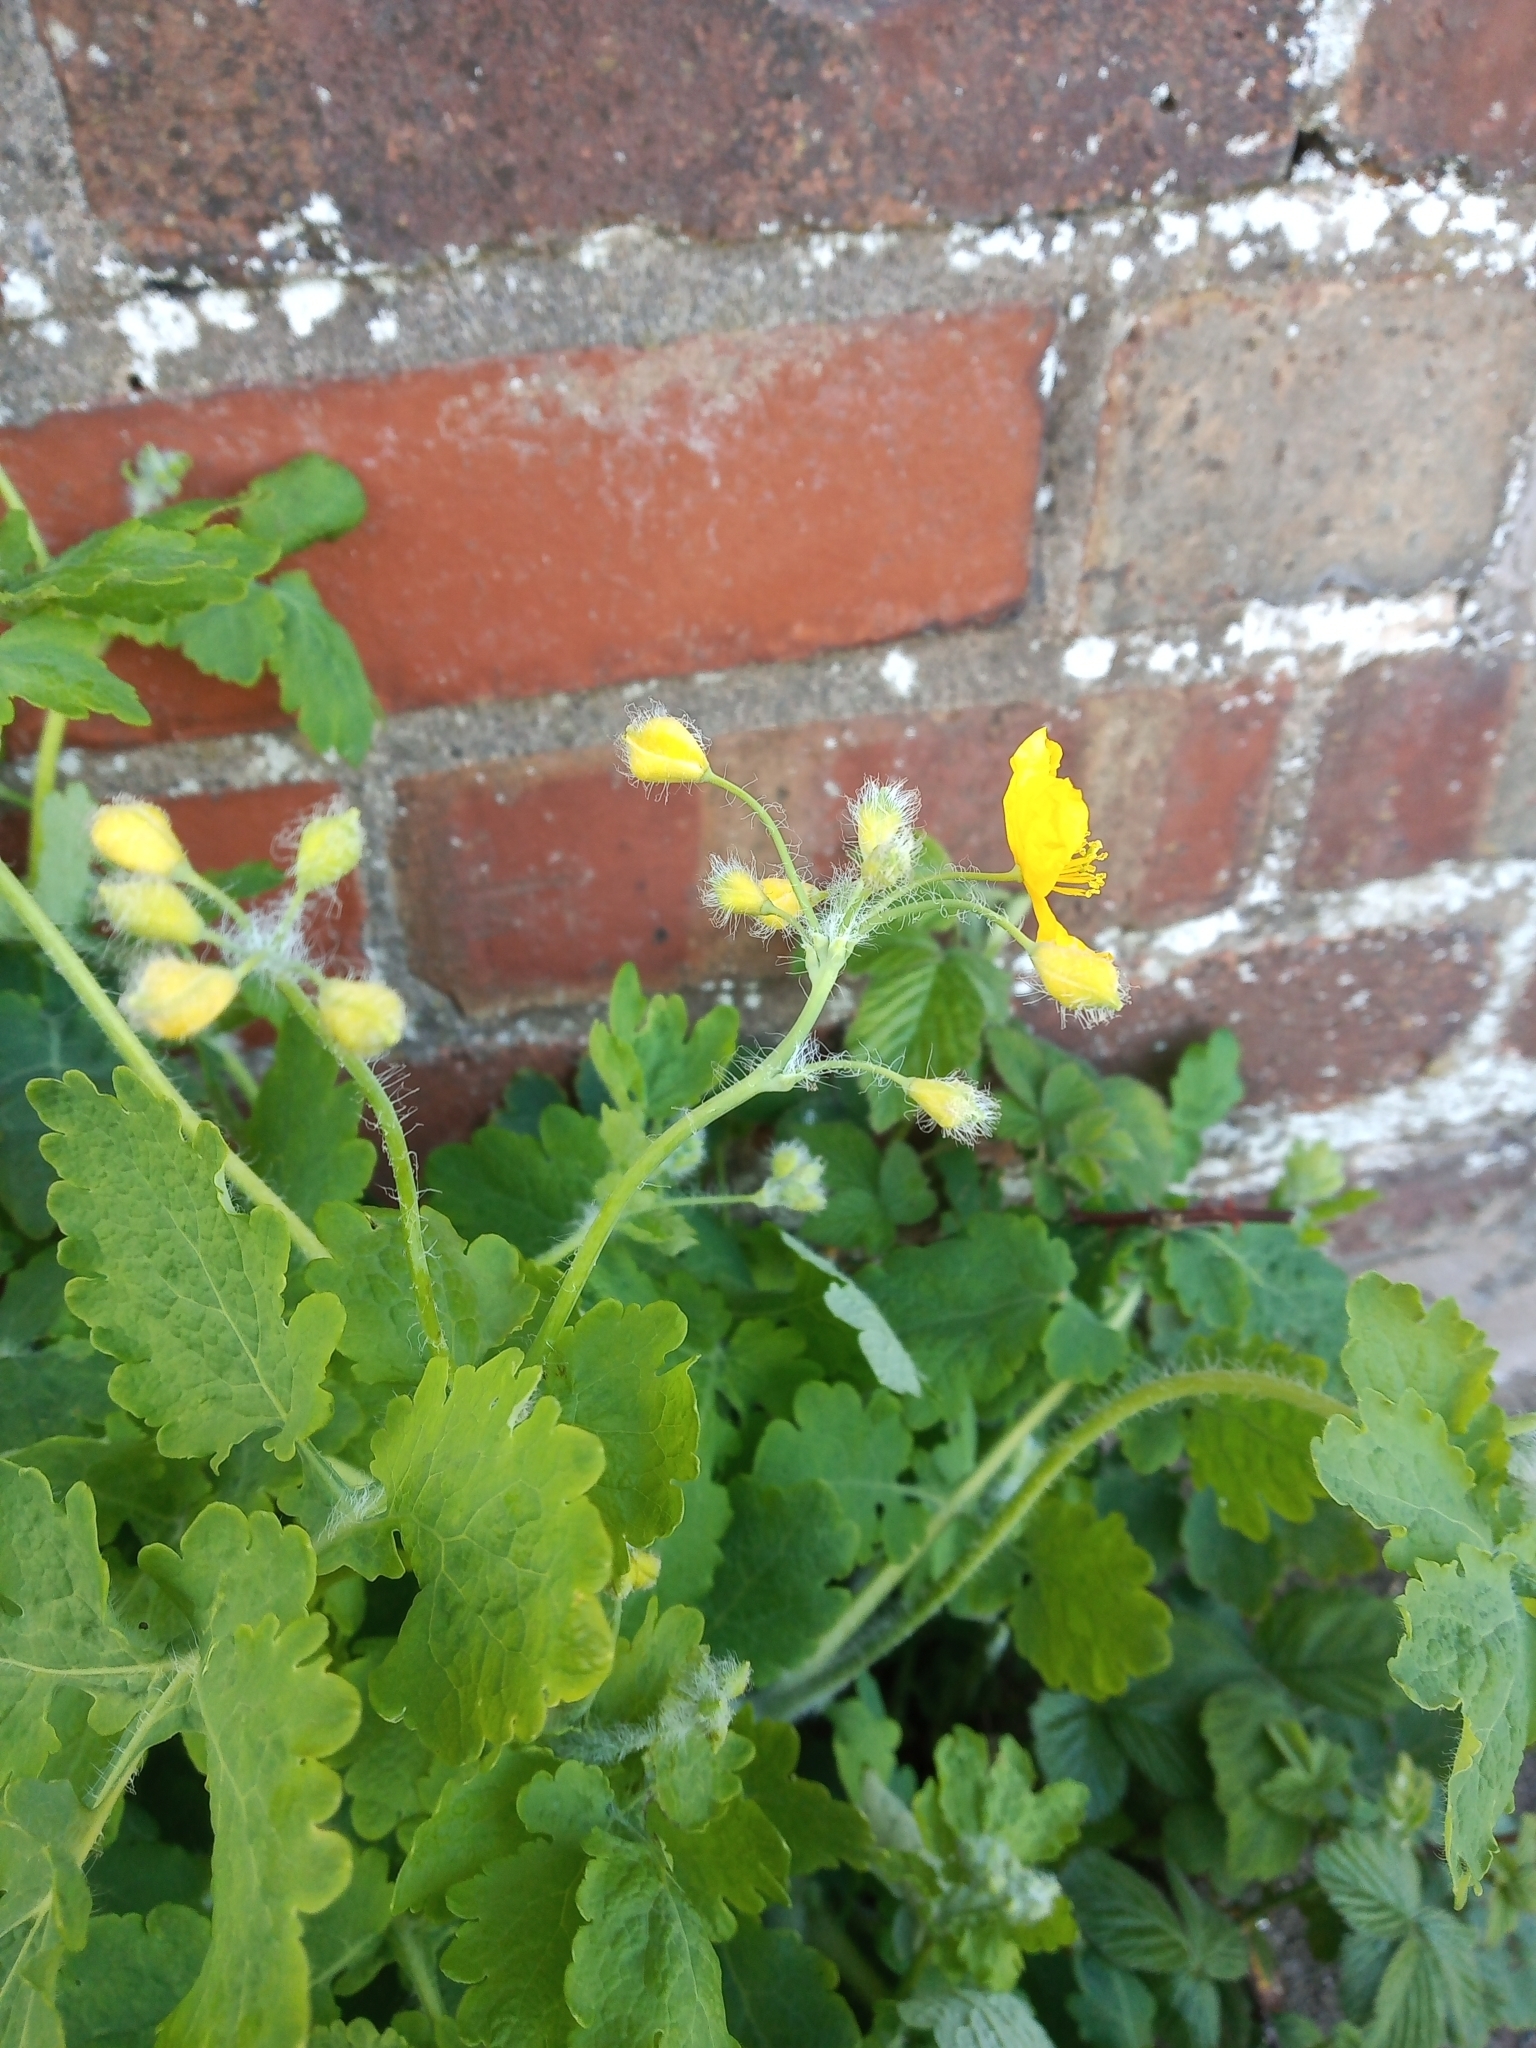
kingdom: Plantae
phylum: Tracheophyta
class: Magnoliopsida
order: Ranunculales
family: Papaveraceae
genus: Chelidonium
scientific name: Chelidonium majus
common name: Greater celandine
